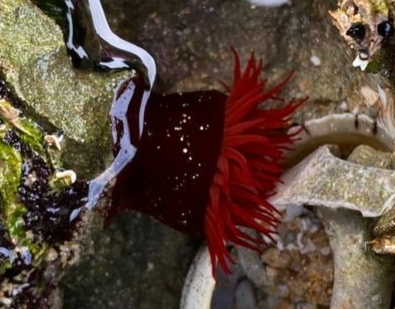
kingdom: Animalia
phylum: Cnidaria
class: Anthozoa
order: Actiniaria
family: Actiniidae
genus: Actinia
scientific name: Actinia tenebrosa
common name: Waratah anemone
